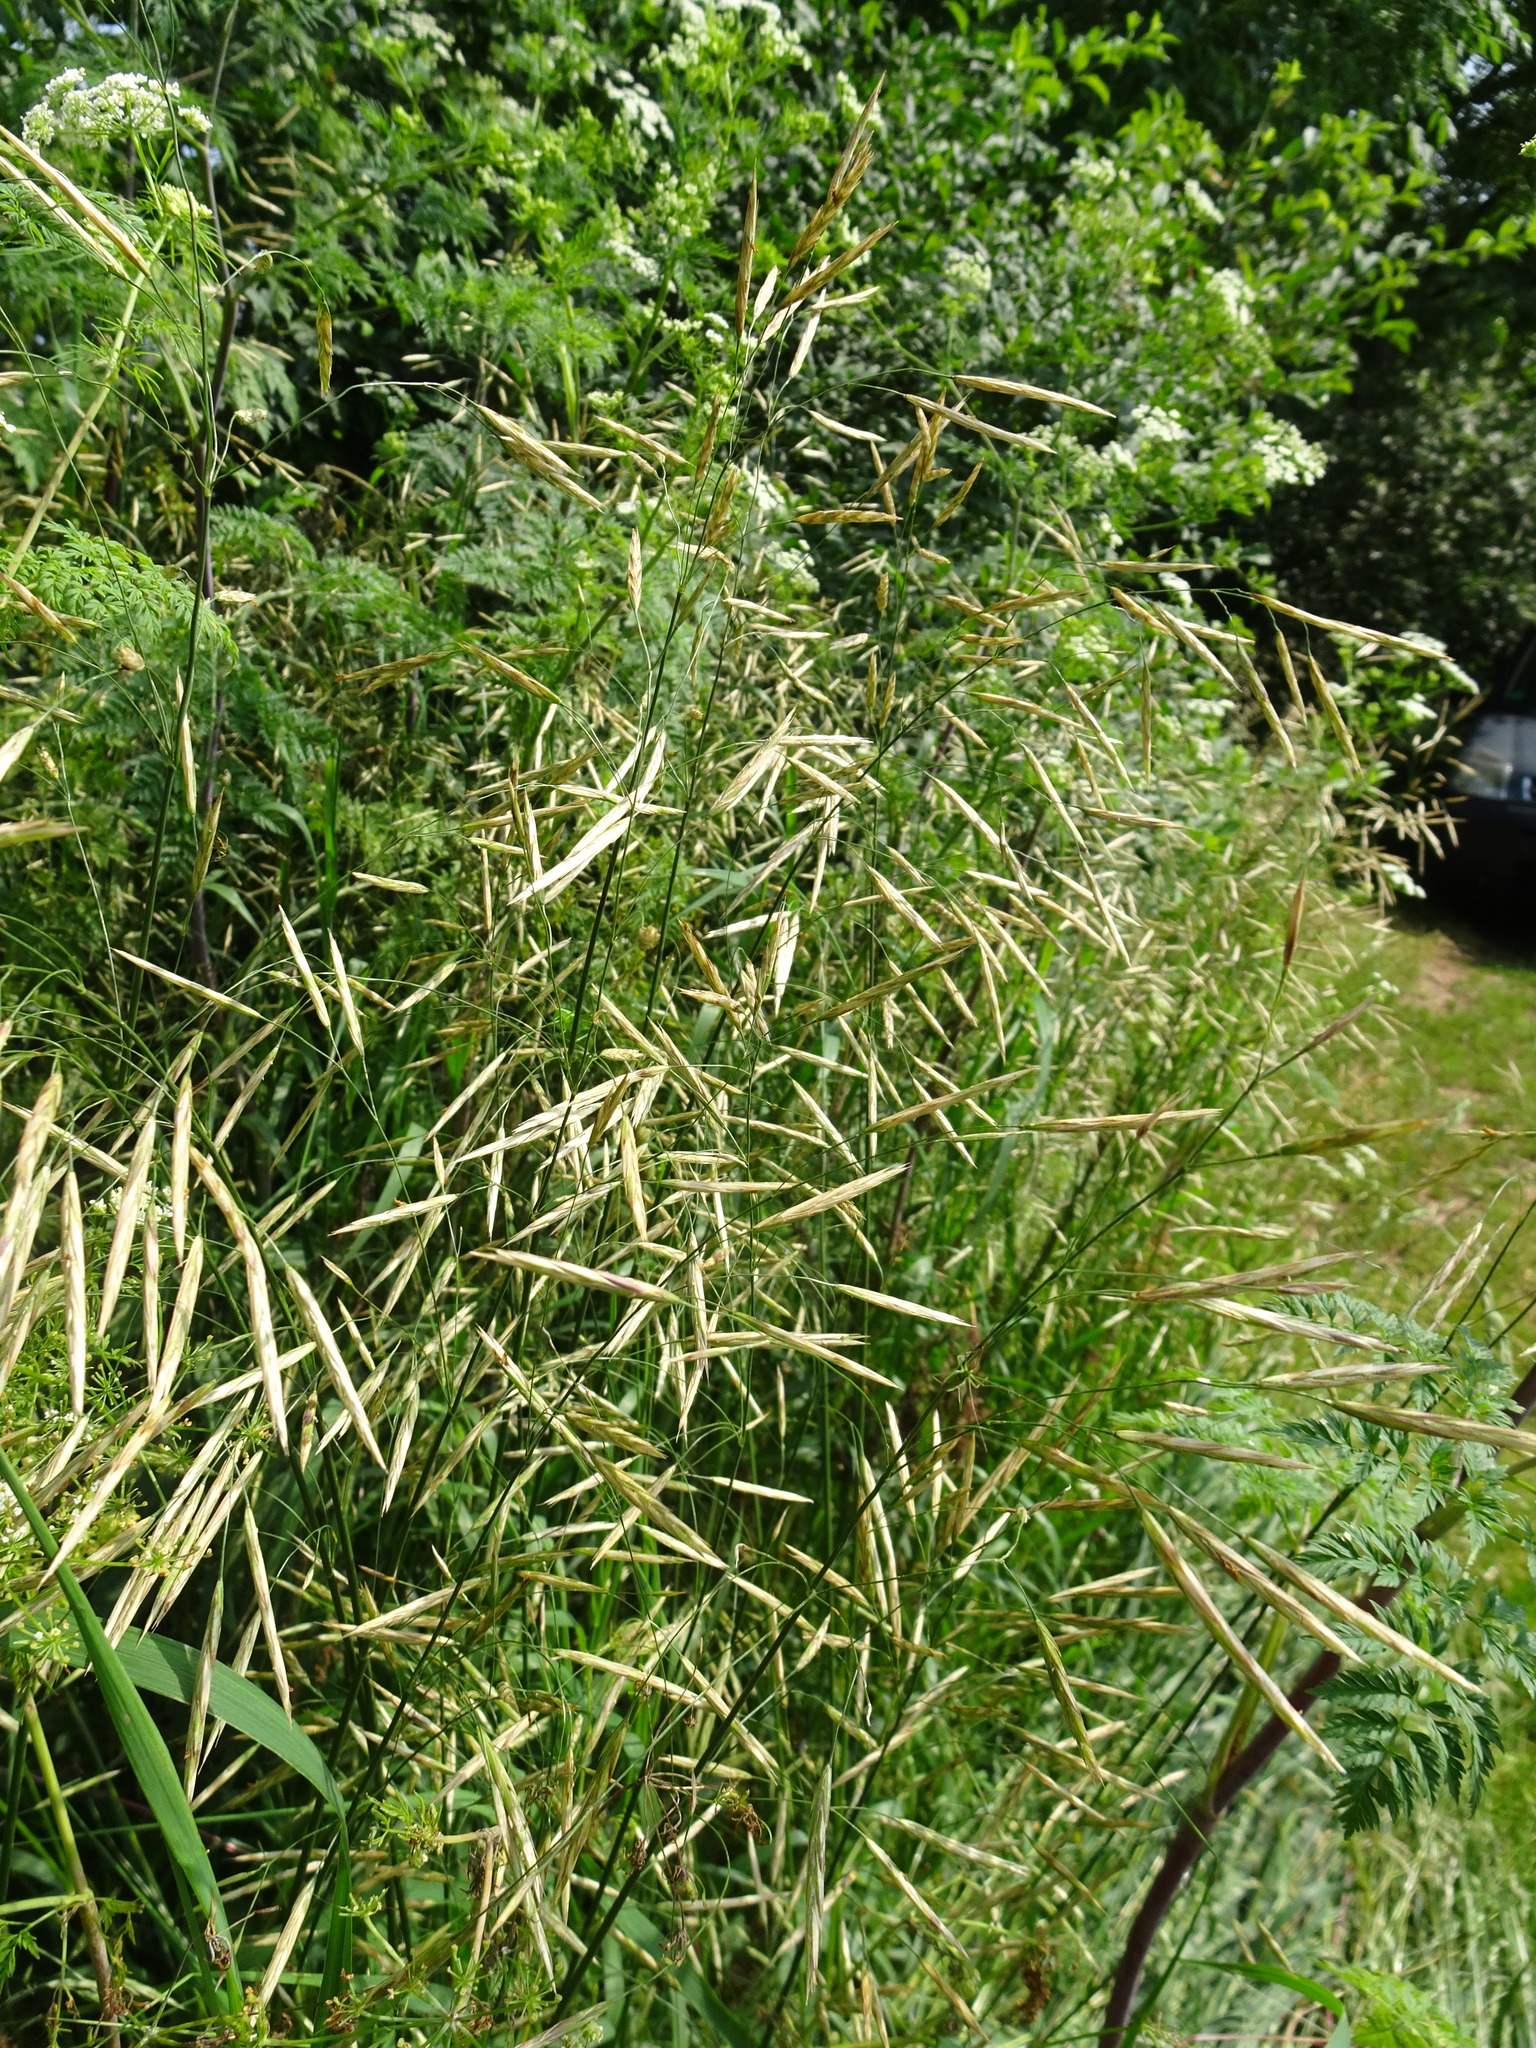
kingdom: Plantae
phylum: Tracheophyta
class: Liliopsida
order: Poales
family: Poaceae
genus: Bromus
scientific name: Bromus inermis
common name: Smooth brome
